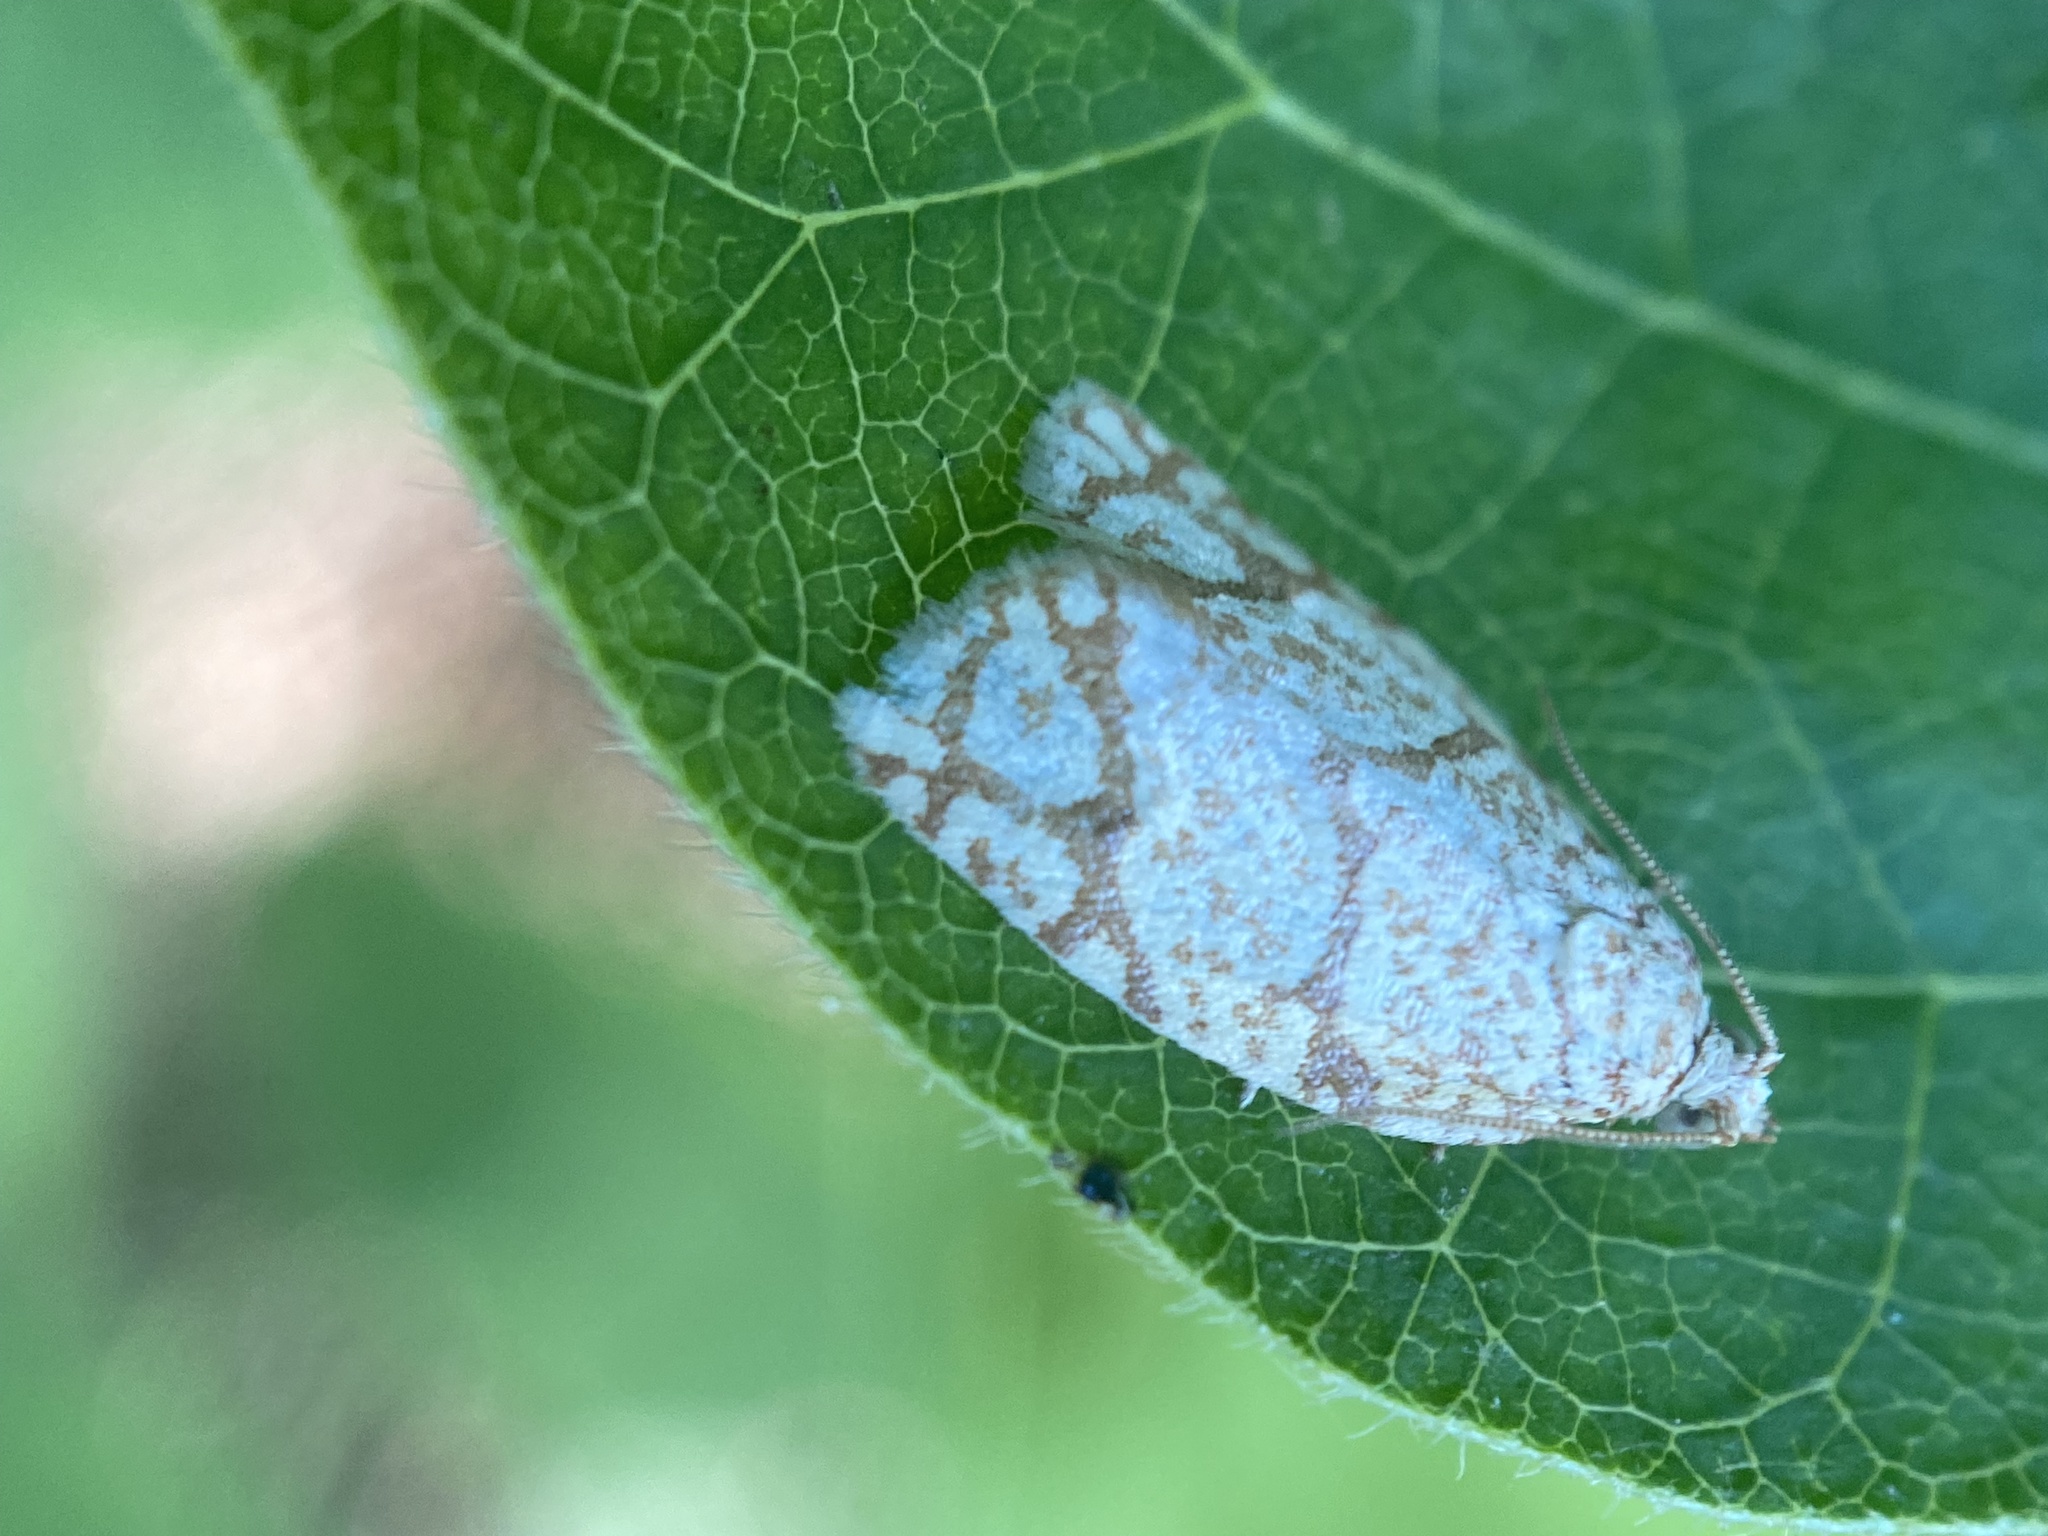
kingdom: Animalia
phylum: Arthropoda
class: Insecta
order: Lepidoptera
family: Tortricidae
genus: Argyrotaenia
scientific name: Argyrotaenia quercifoliana
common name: Yellow-winged oak leafroller moth
